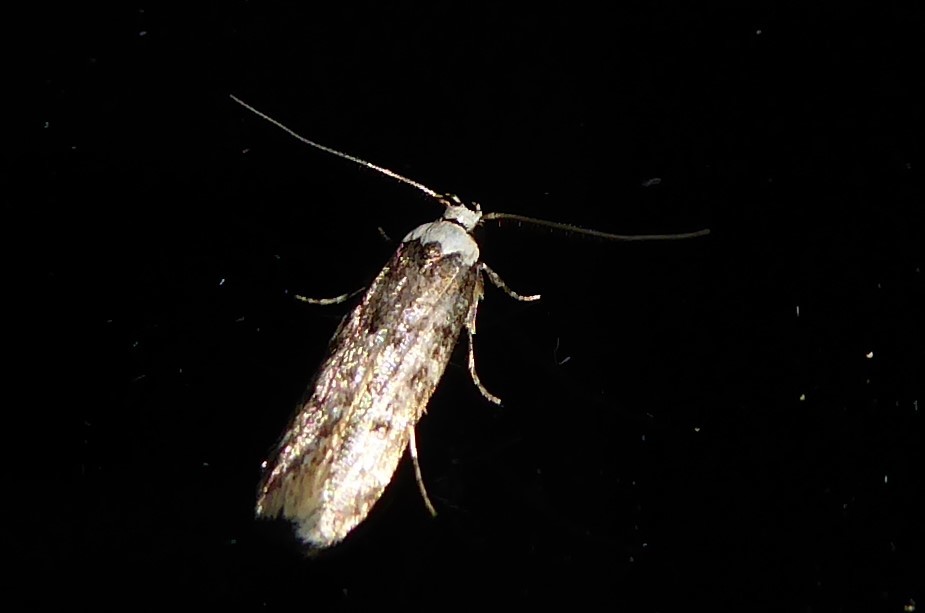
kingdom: Animalia
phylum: Arthropoda
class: Insecta
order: Lepidoptera
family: Oecophoridae
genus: Endrosis
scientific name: Endrosis sarcitrella
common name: White-shouldered house moth
